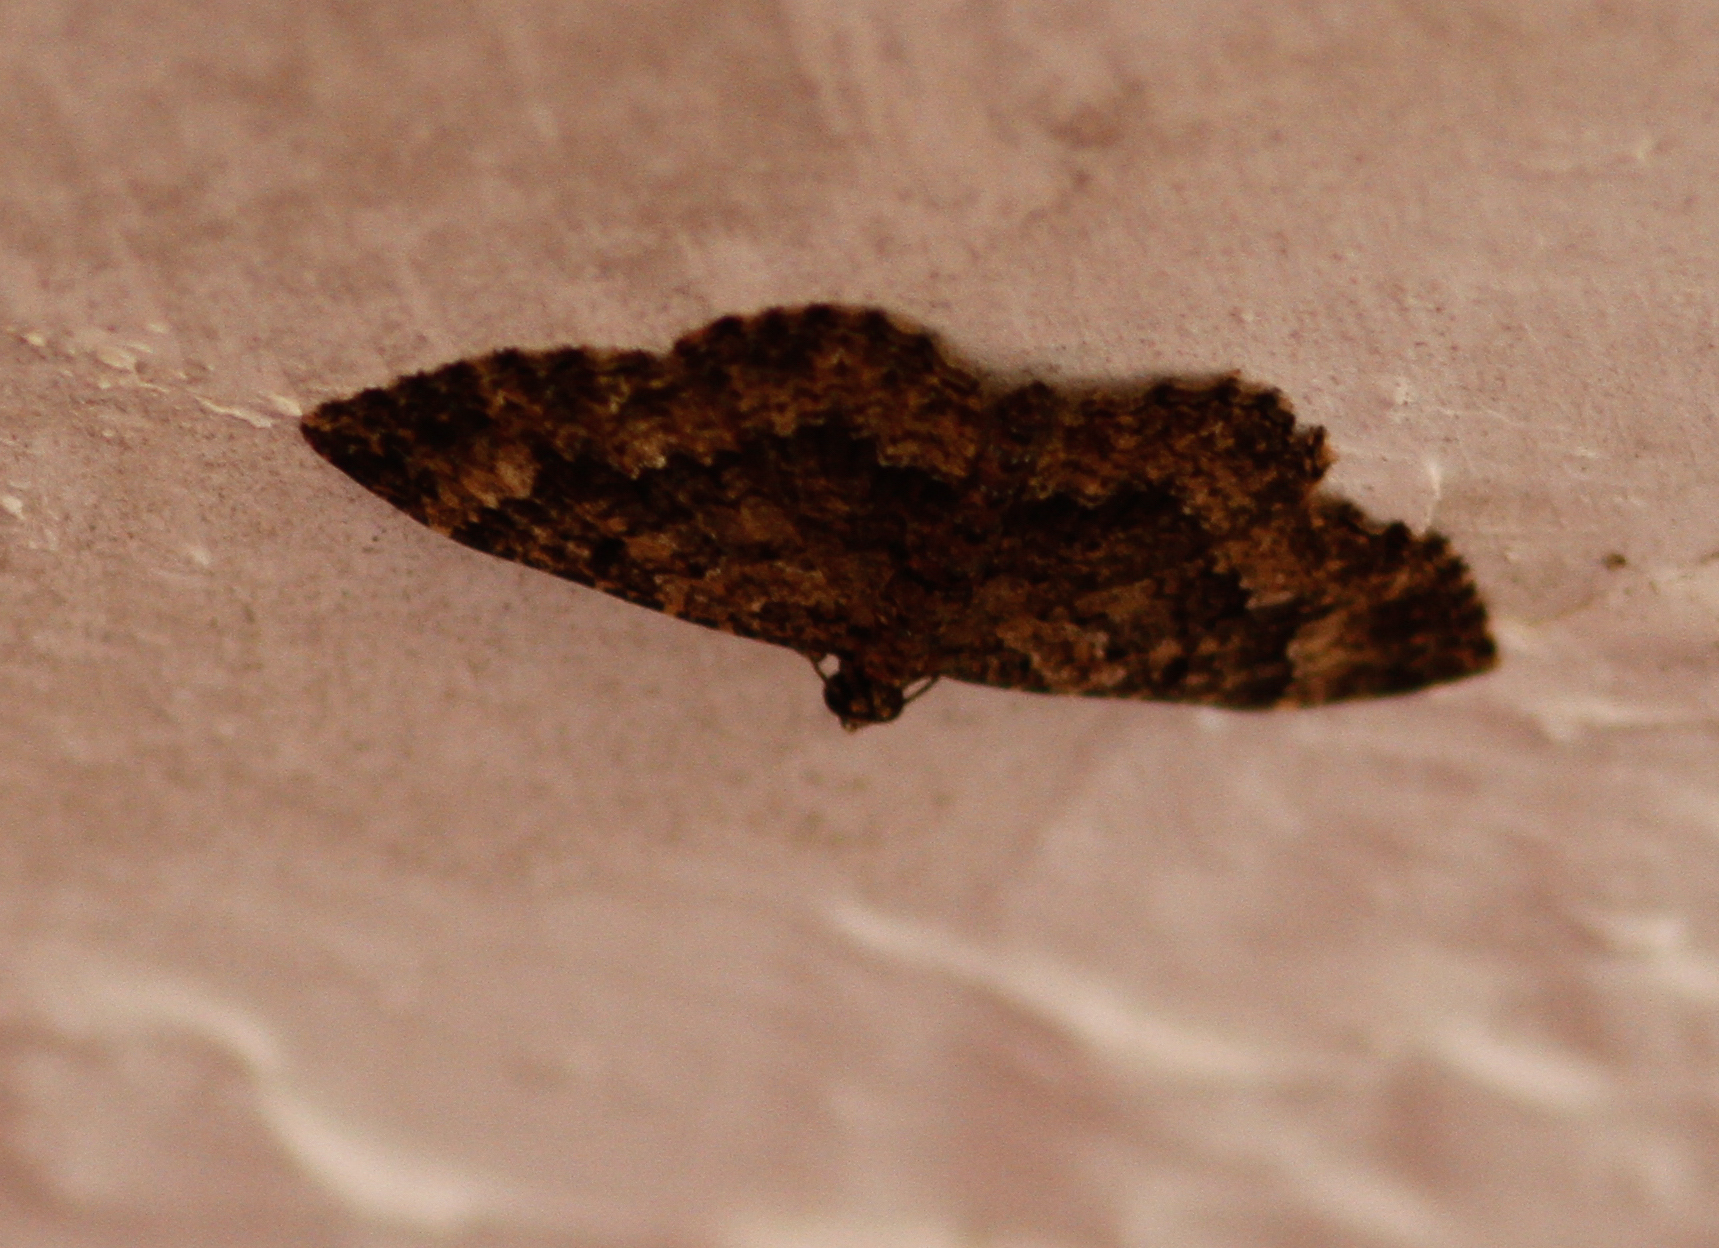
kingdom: Animalia
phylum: Arthropoda
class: Insecta
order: Lepidoptera
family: Geometridae
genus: Disclisioprocta
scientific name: Disclisioprocta stellata
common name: Somber carpet
